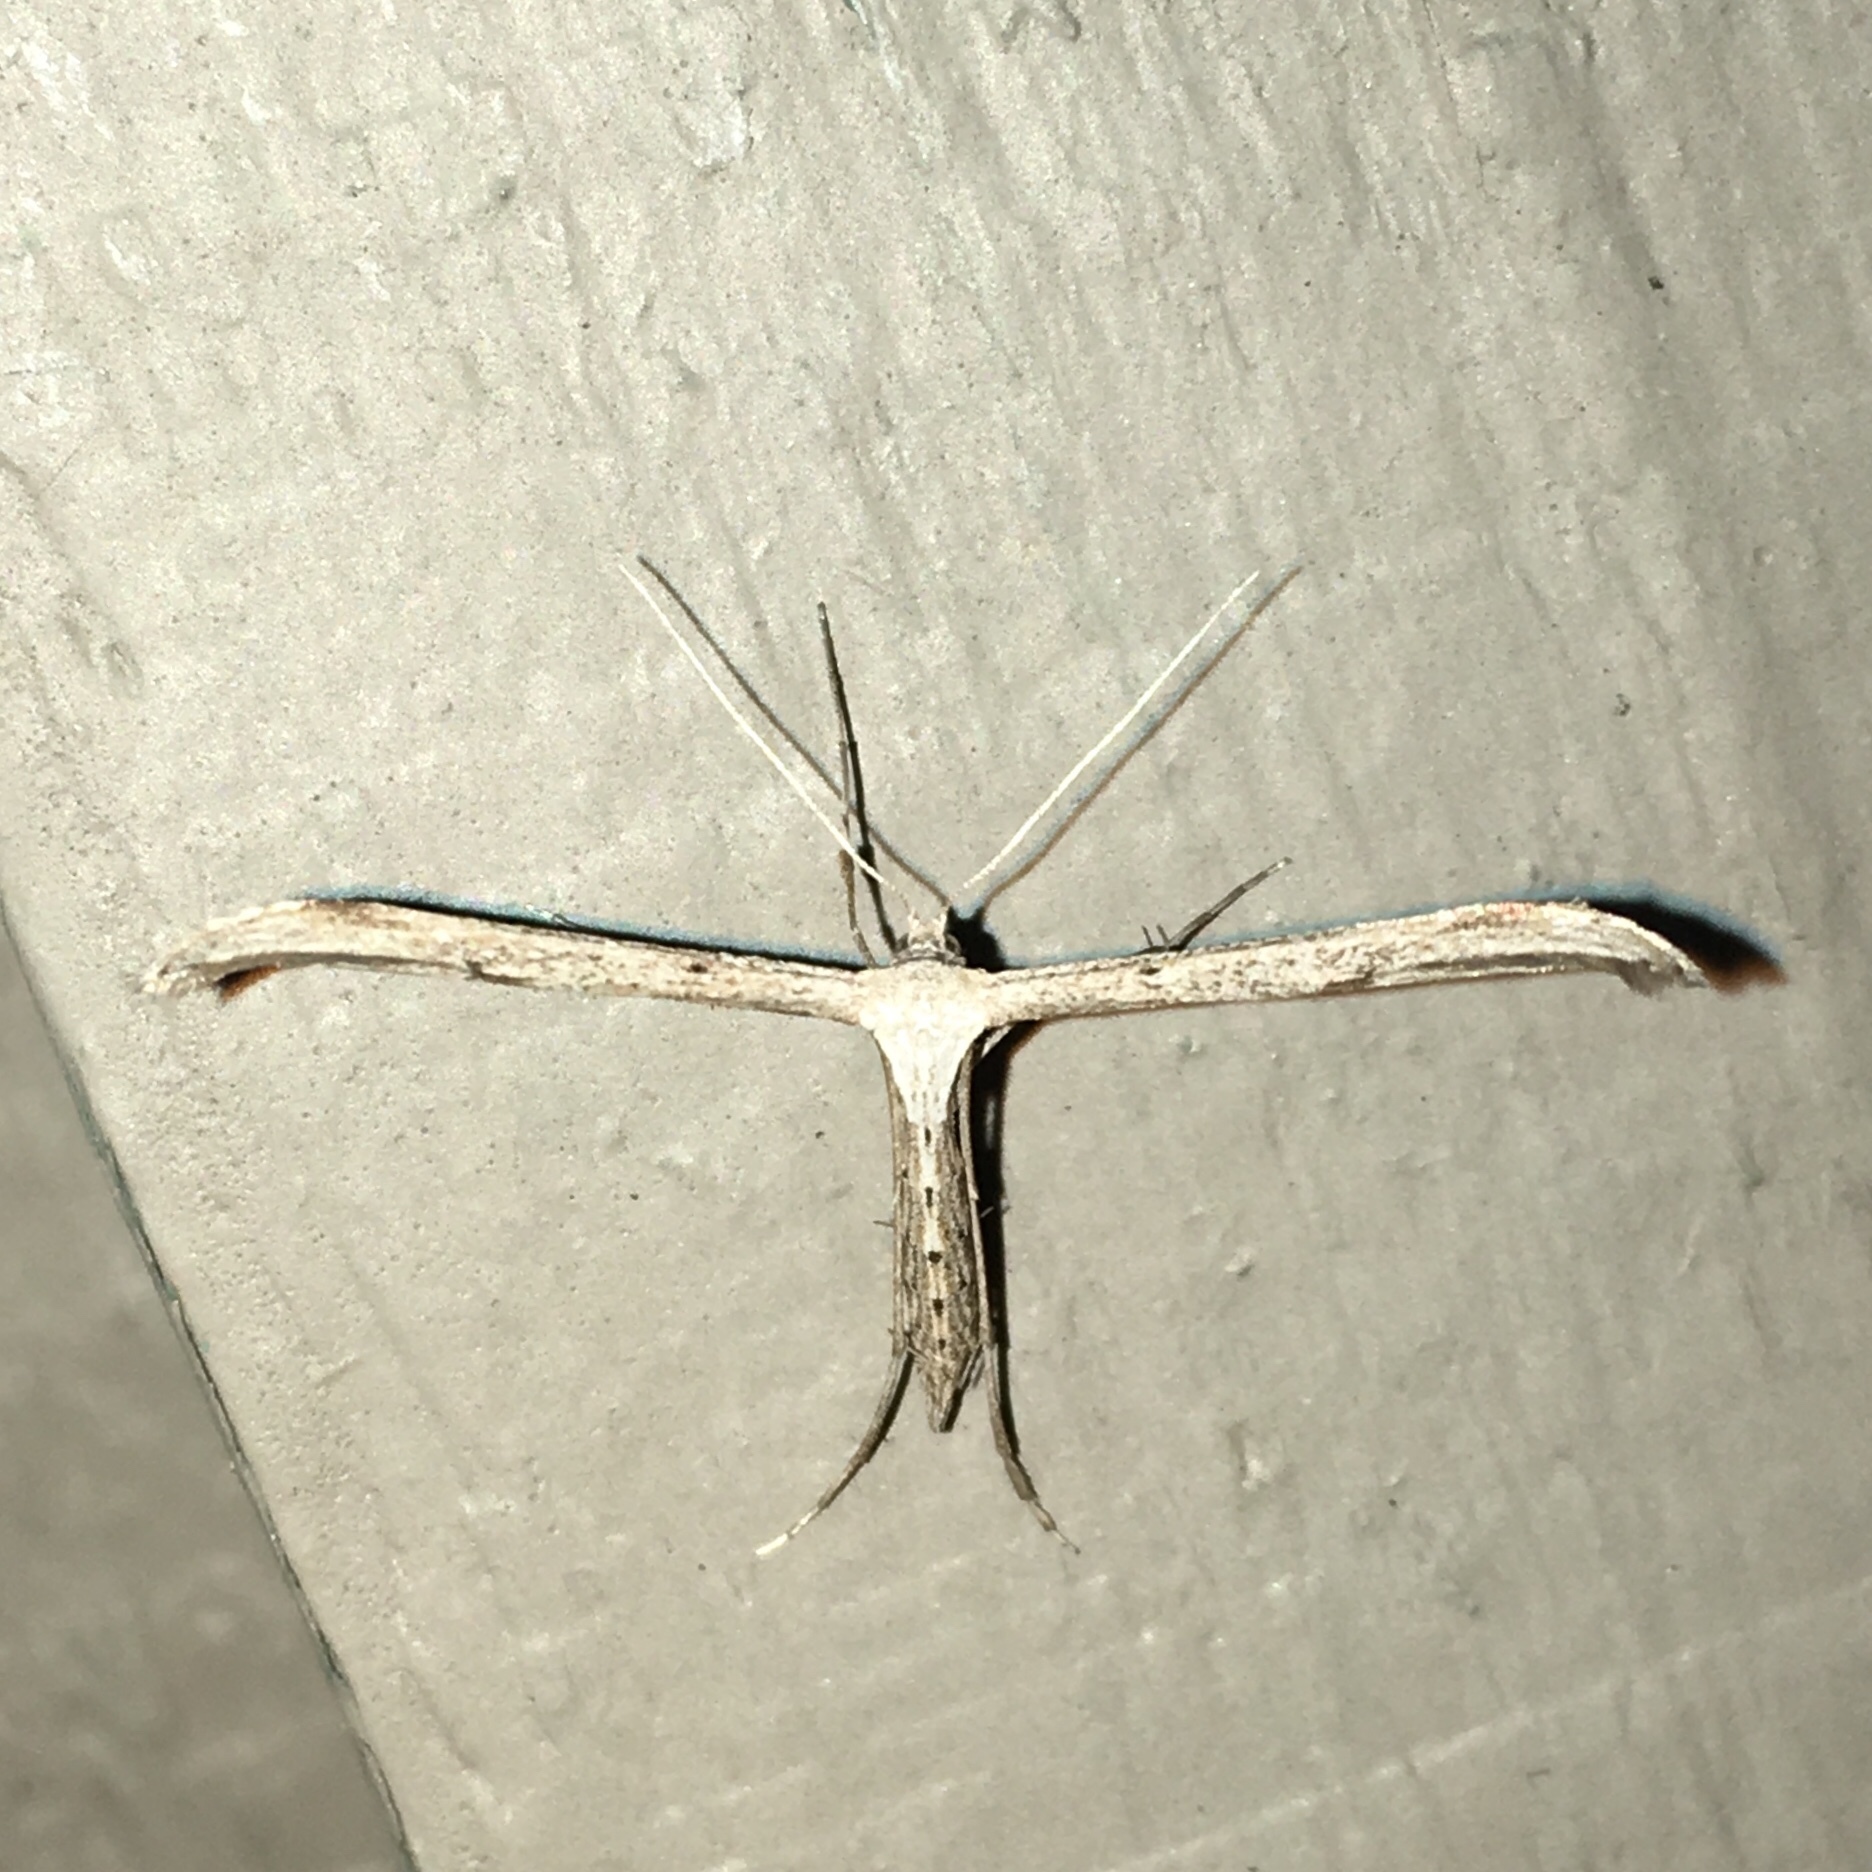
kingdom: Animalia
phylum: Arthropoda
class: Insecta
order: Lepidoptera
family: Pterophoridae
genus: Emmelina
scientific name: Emmelina monodactyla
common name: Common plume
